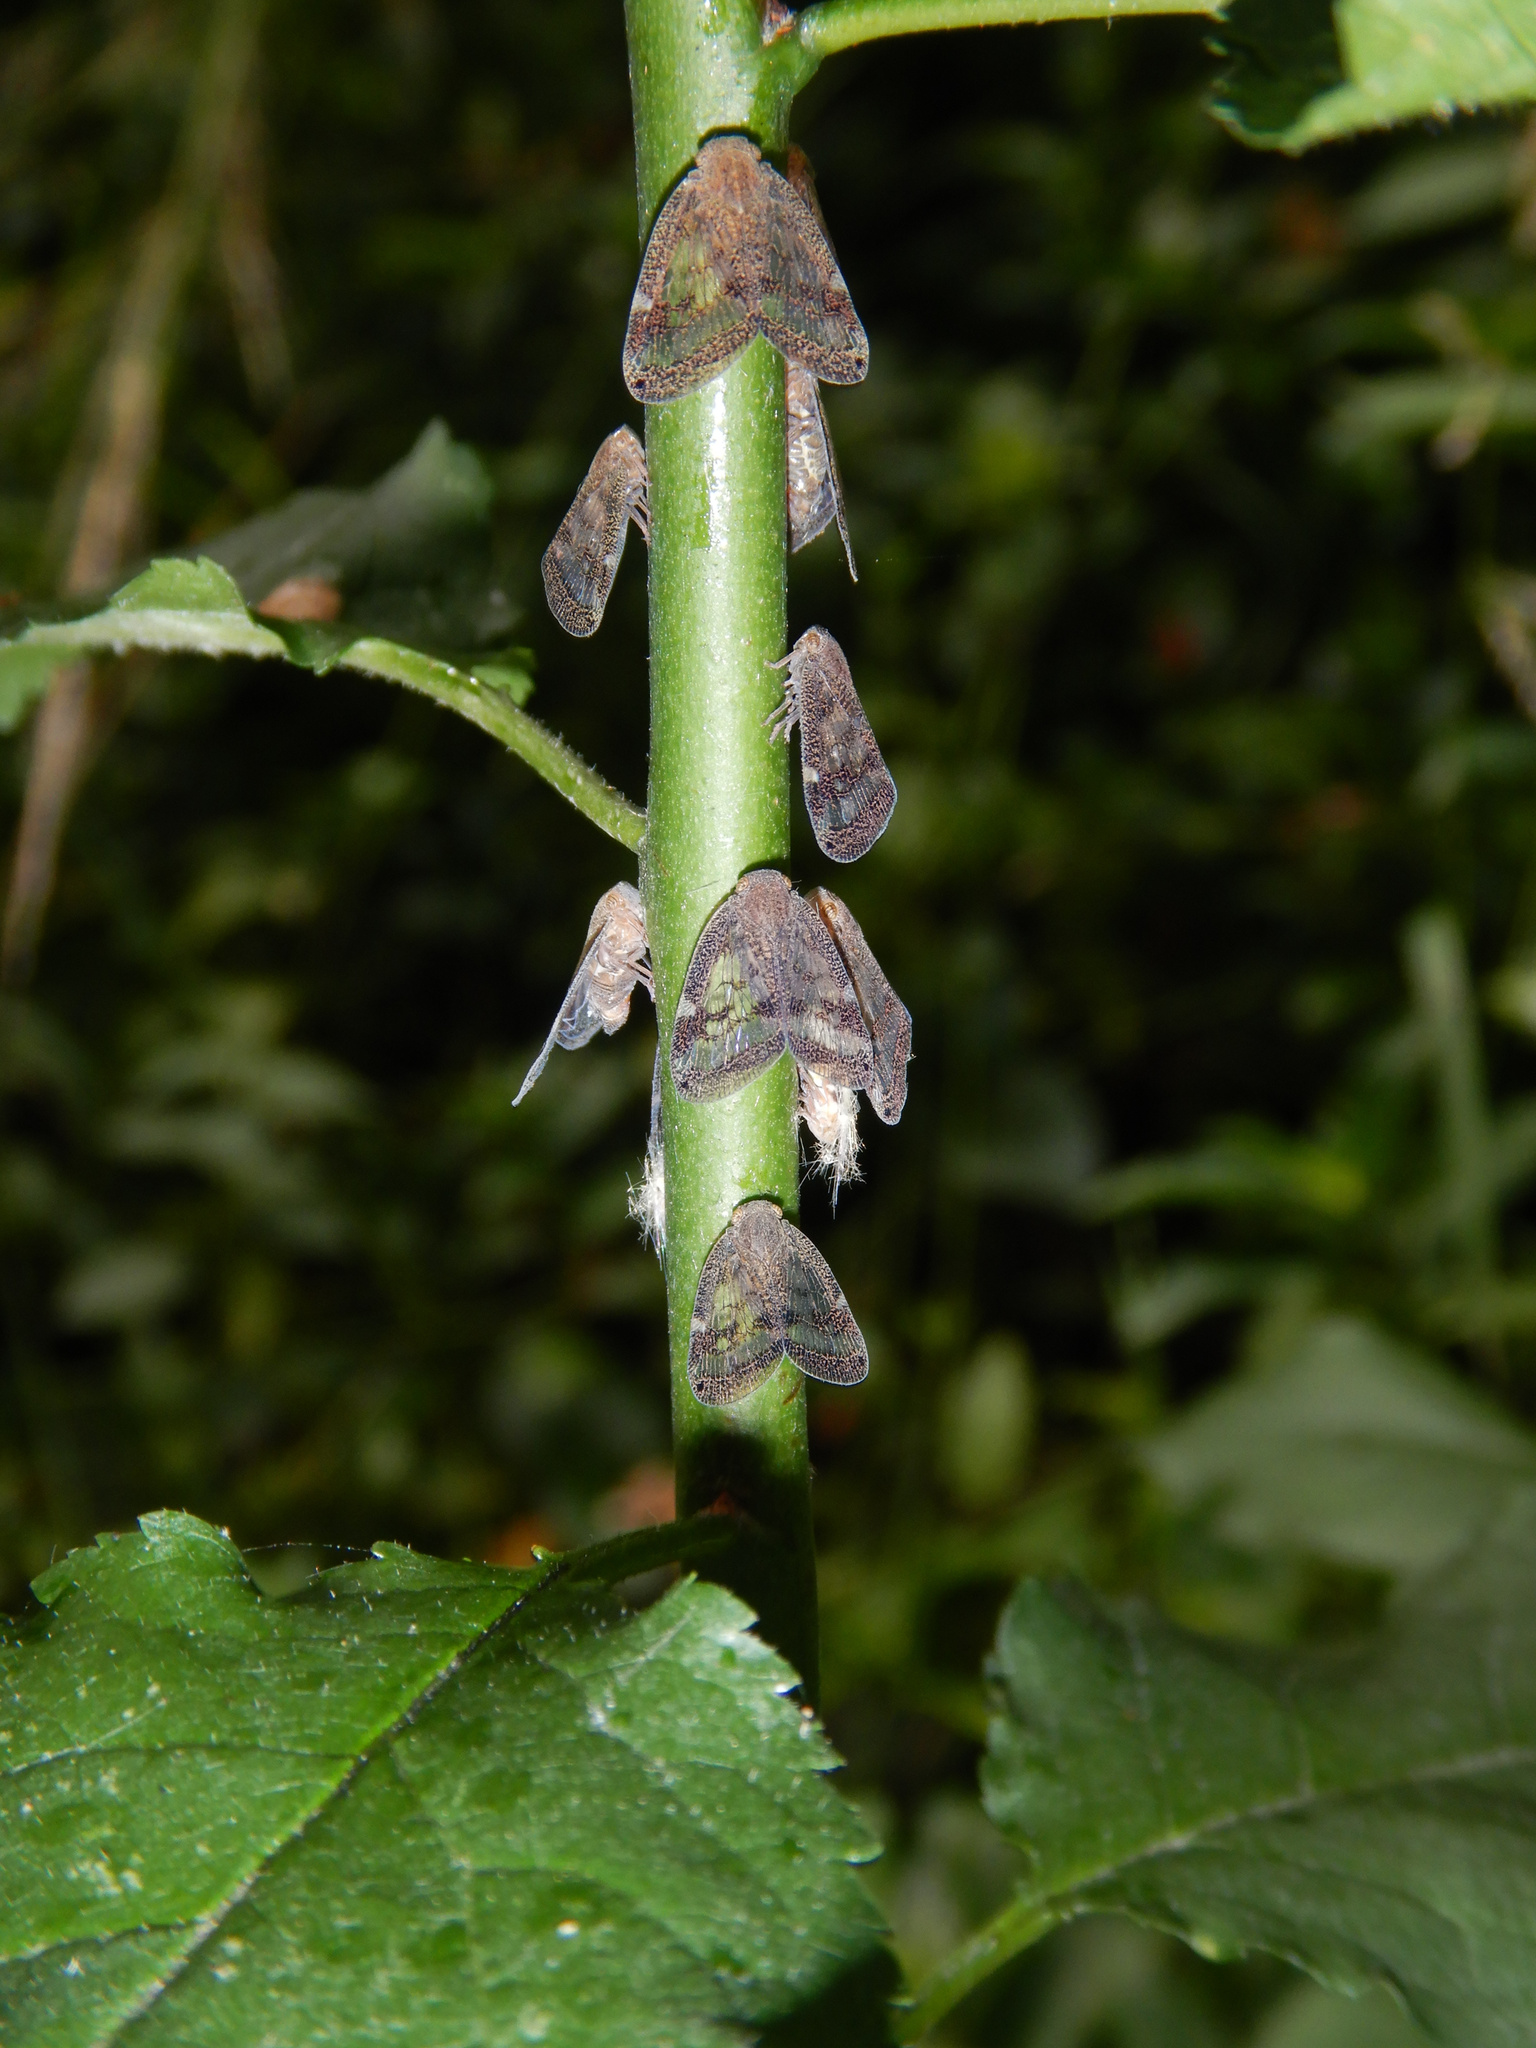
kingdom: Animalia
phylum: Arthropoda
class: Insecta
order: Hemiptera
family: Ricaniidae
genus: Scolypopa
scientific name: Scolypopa australis
